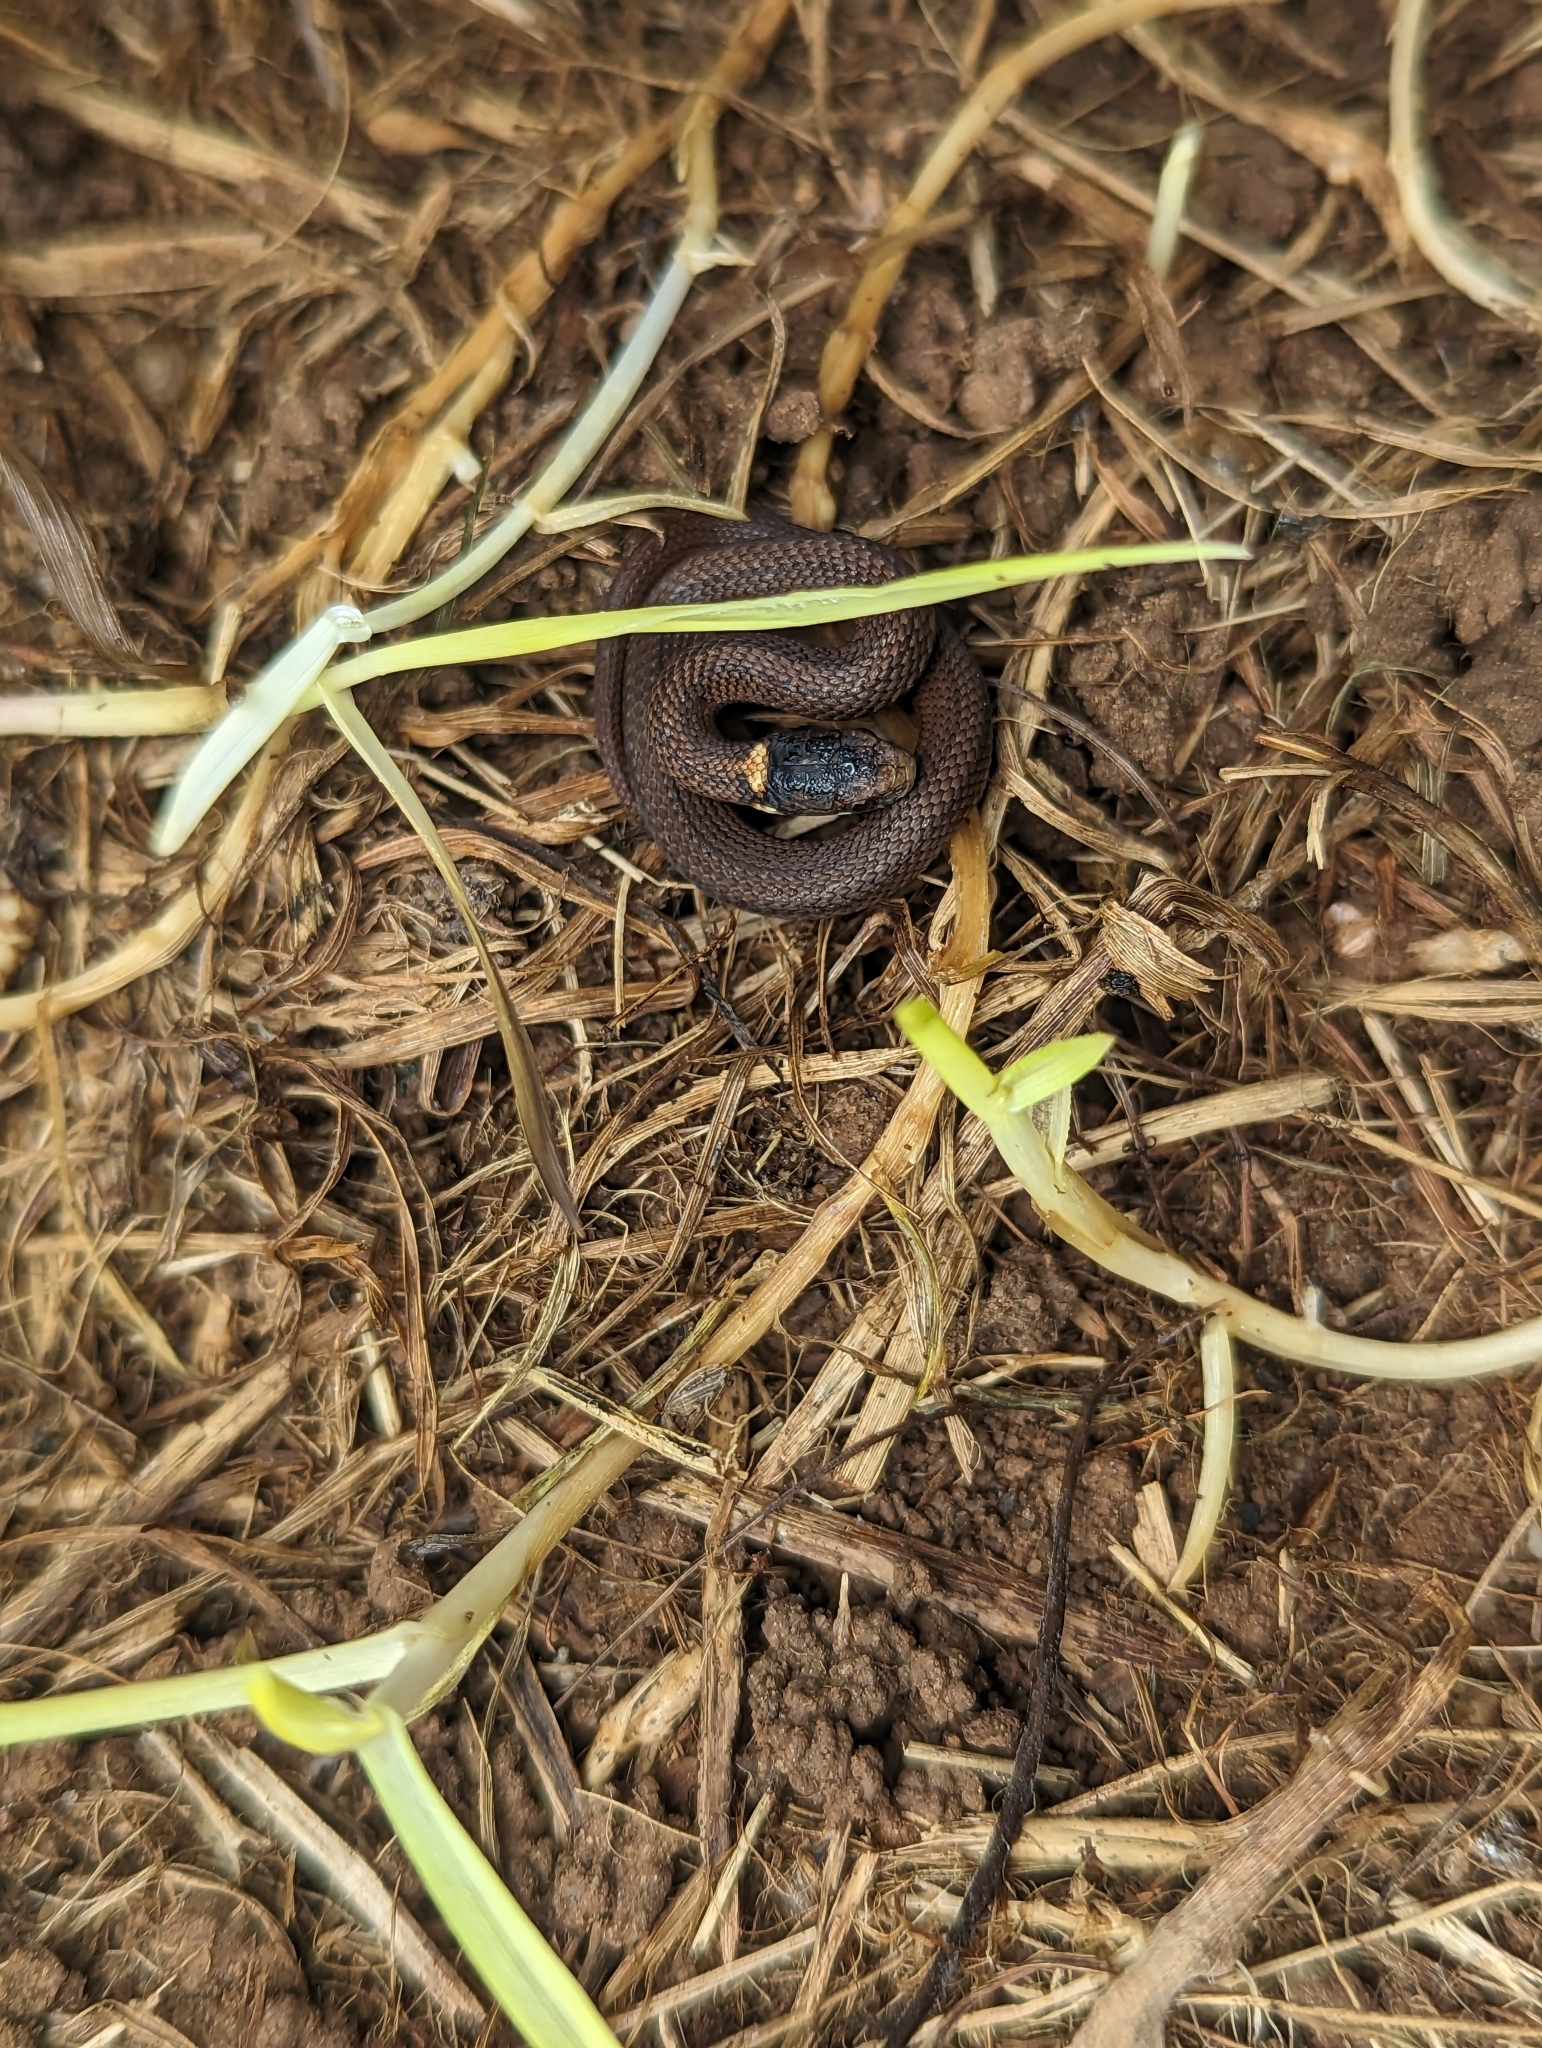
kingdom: Animalia
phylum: Chordata
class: Squamata
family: Colubridae
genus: Storeria
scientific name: Storeria occipitomaculata
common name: Redbelly snake
